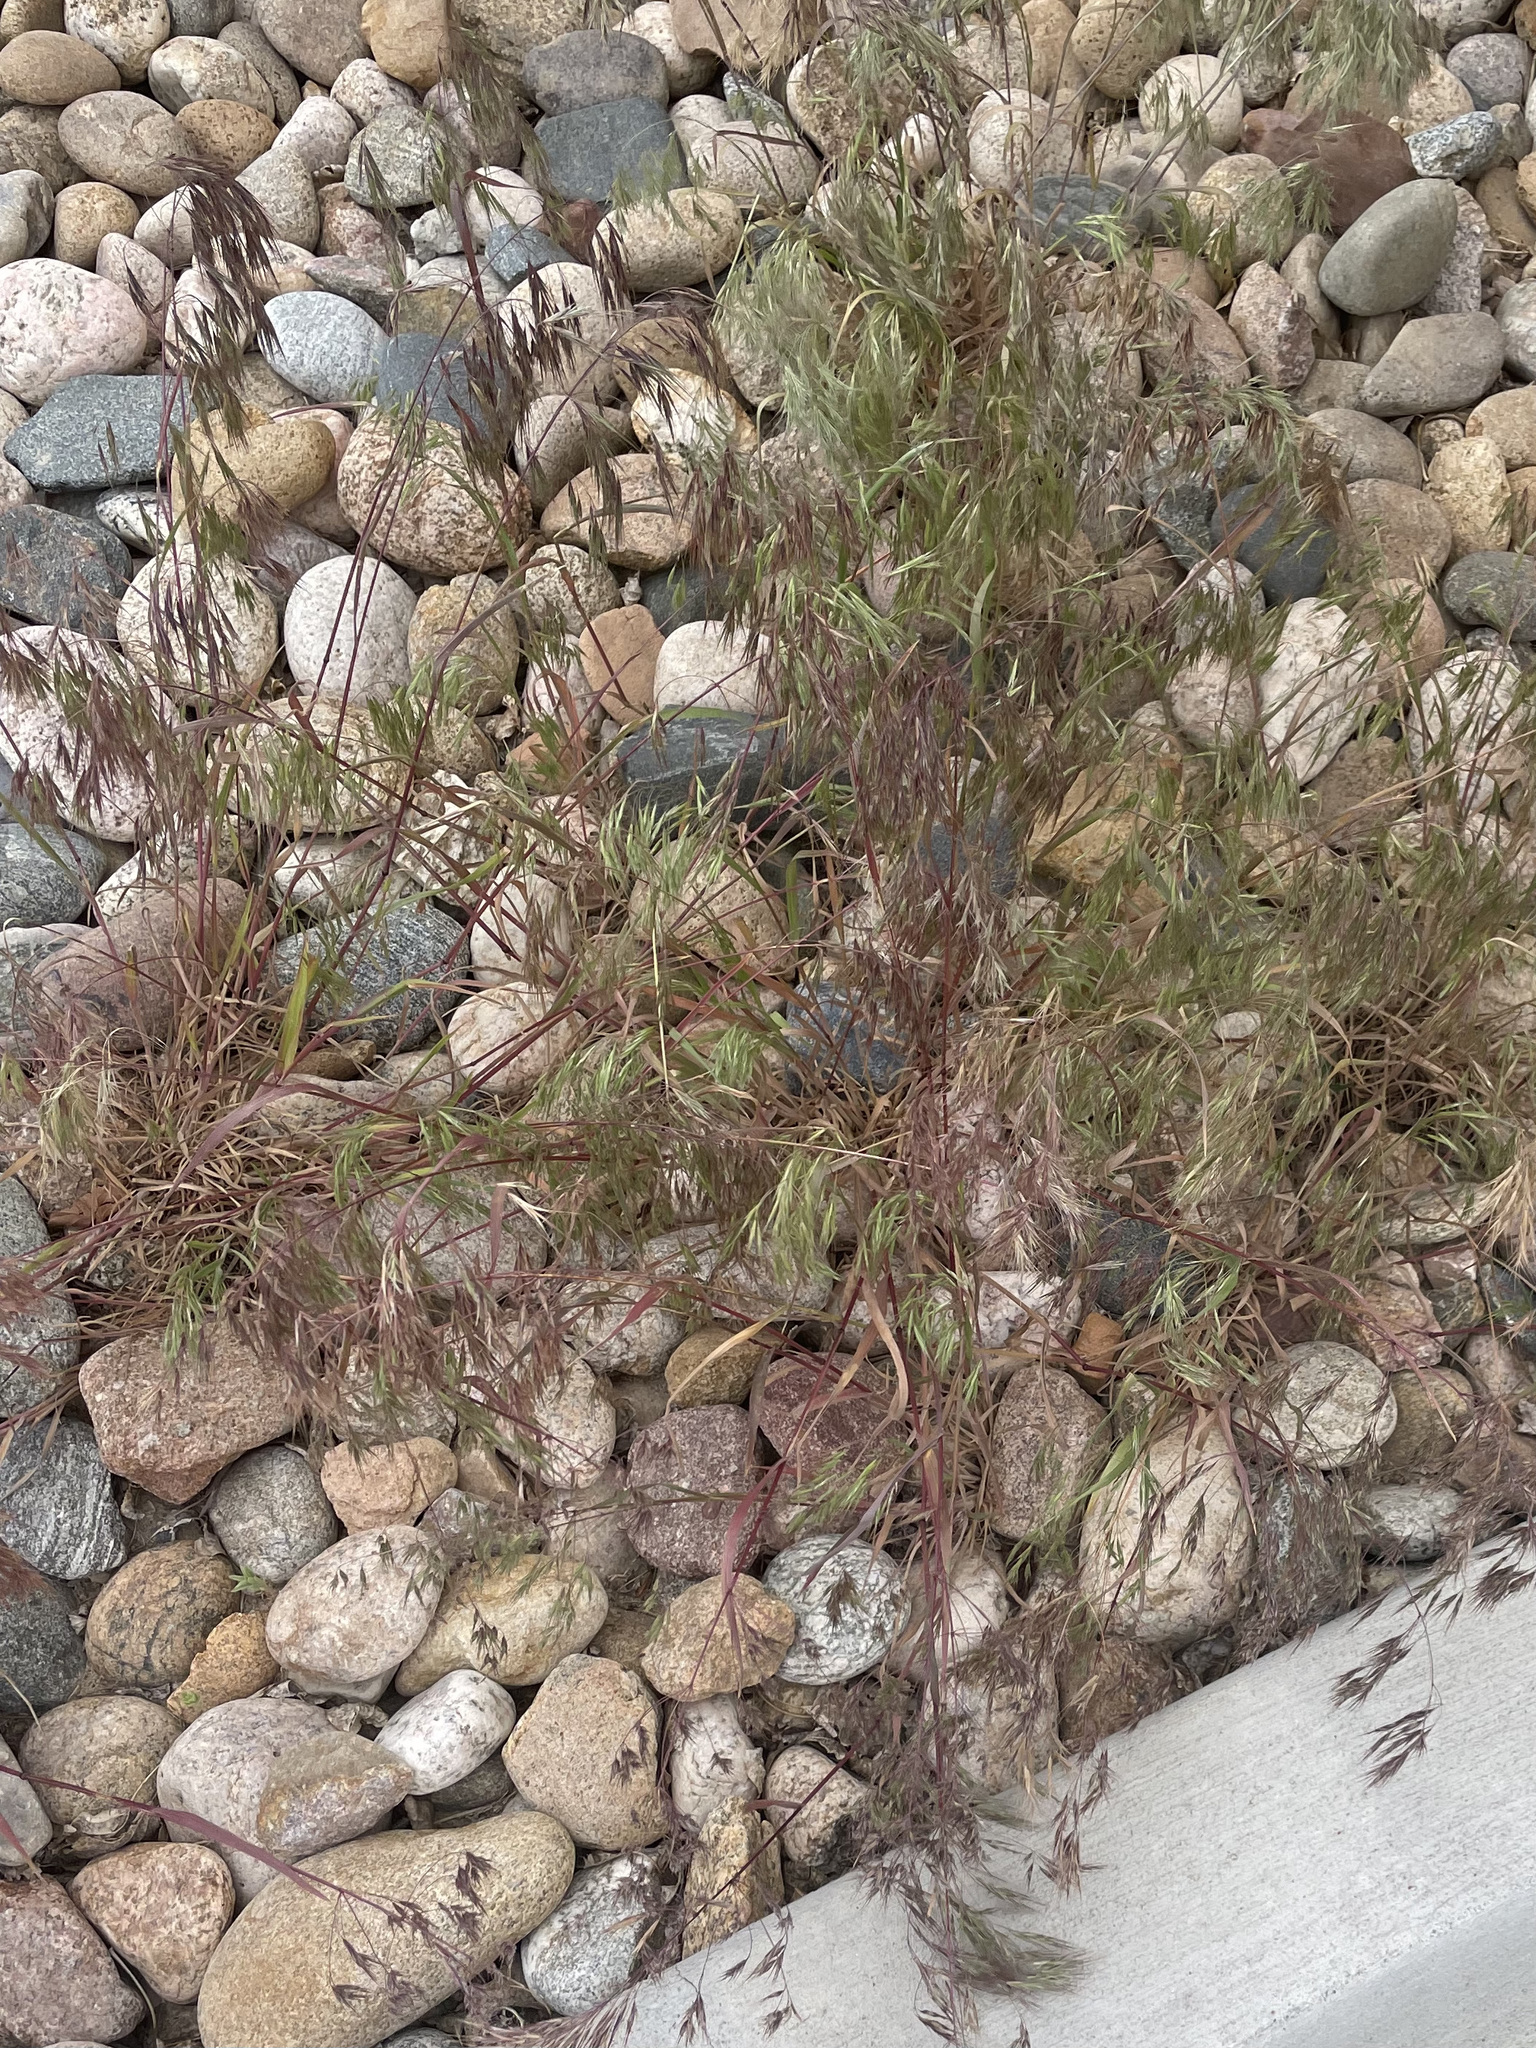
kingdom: Plantae
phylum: Tracheophyta
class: Liliopsida
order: Poales
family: Poaceae
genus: Bromus
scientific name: Bromus tectorum
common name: Cheatgrass
